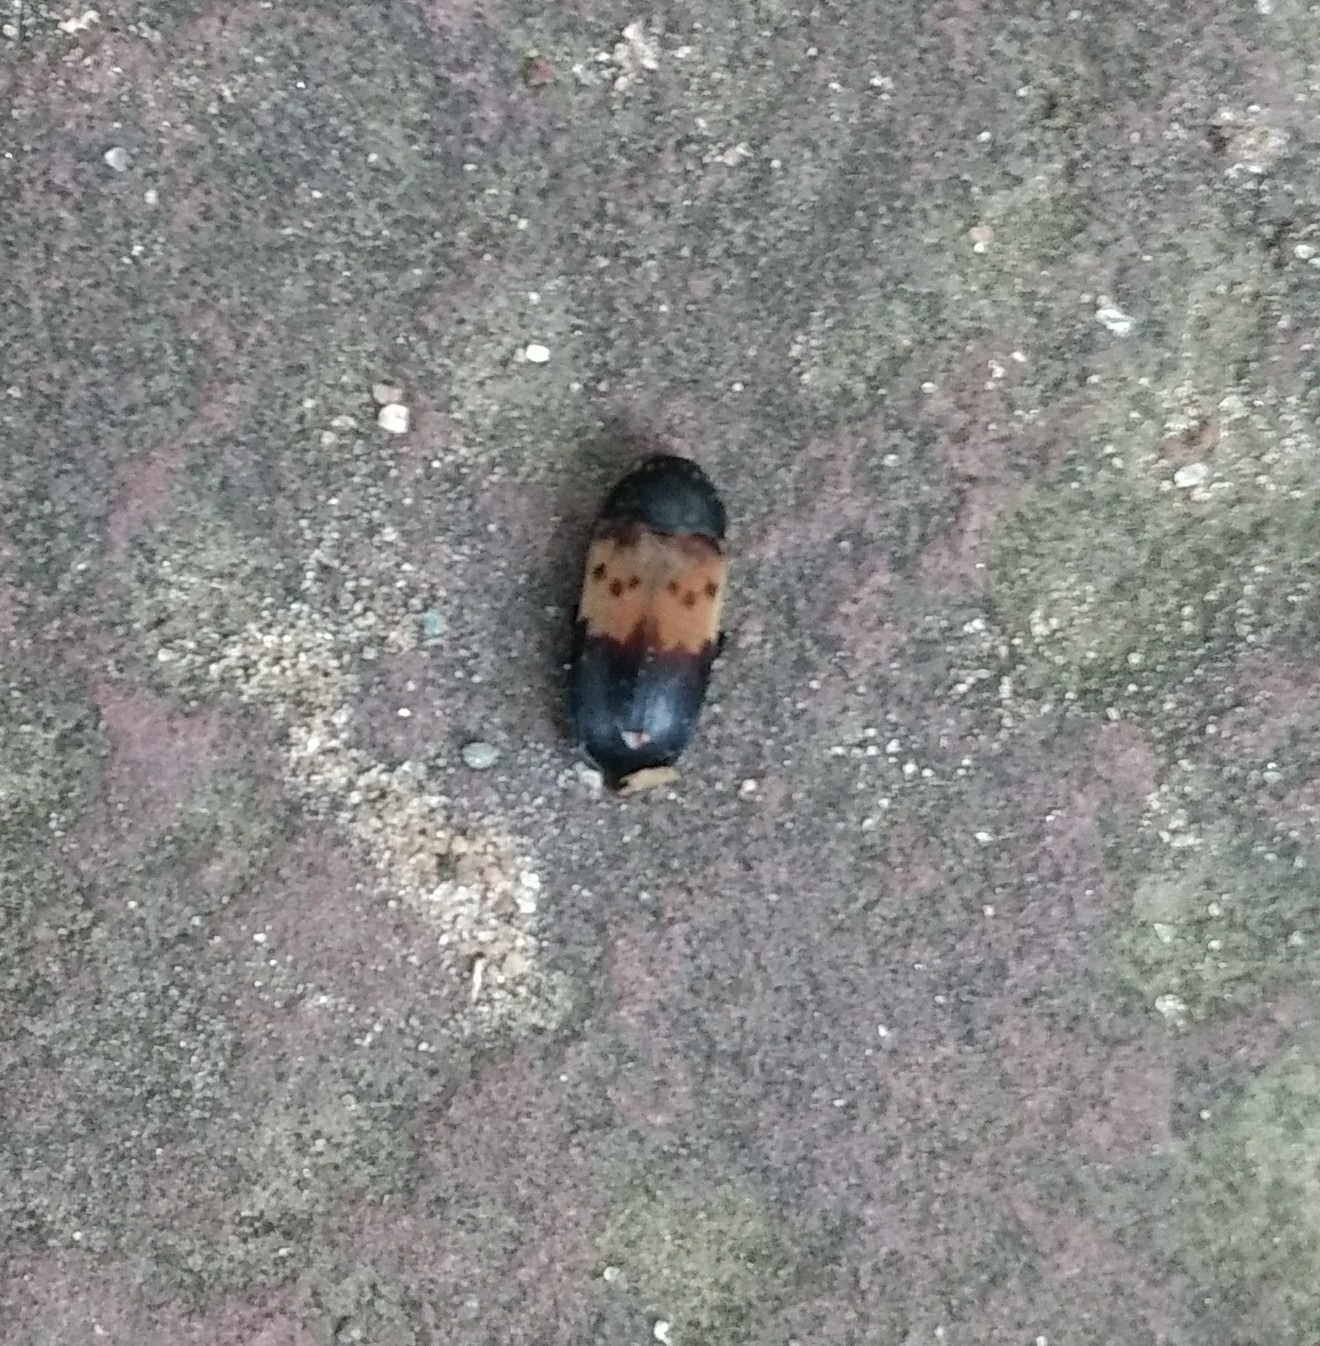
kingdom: Animalia
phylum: Arthropoda
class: Insecta
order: Coleoptera
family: Dermestidae
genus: Dermestes
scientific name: Dermestes lardarius
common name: Larder beetle
